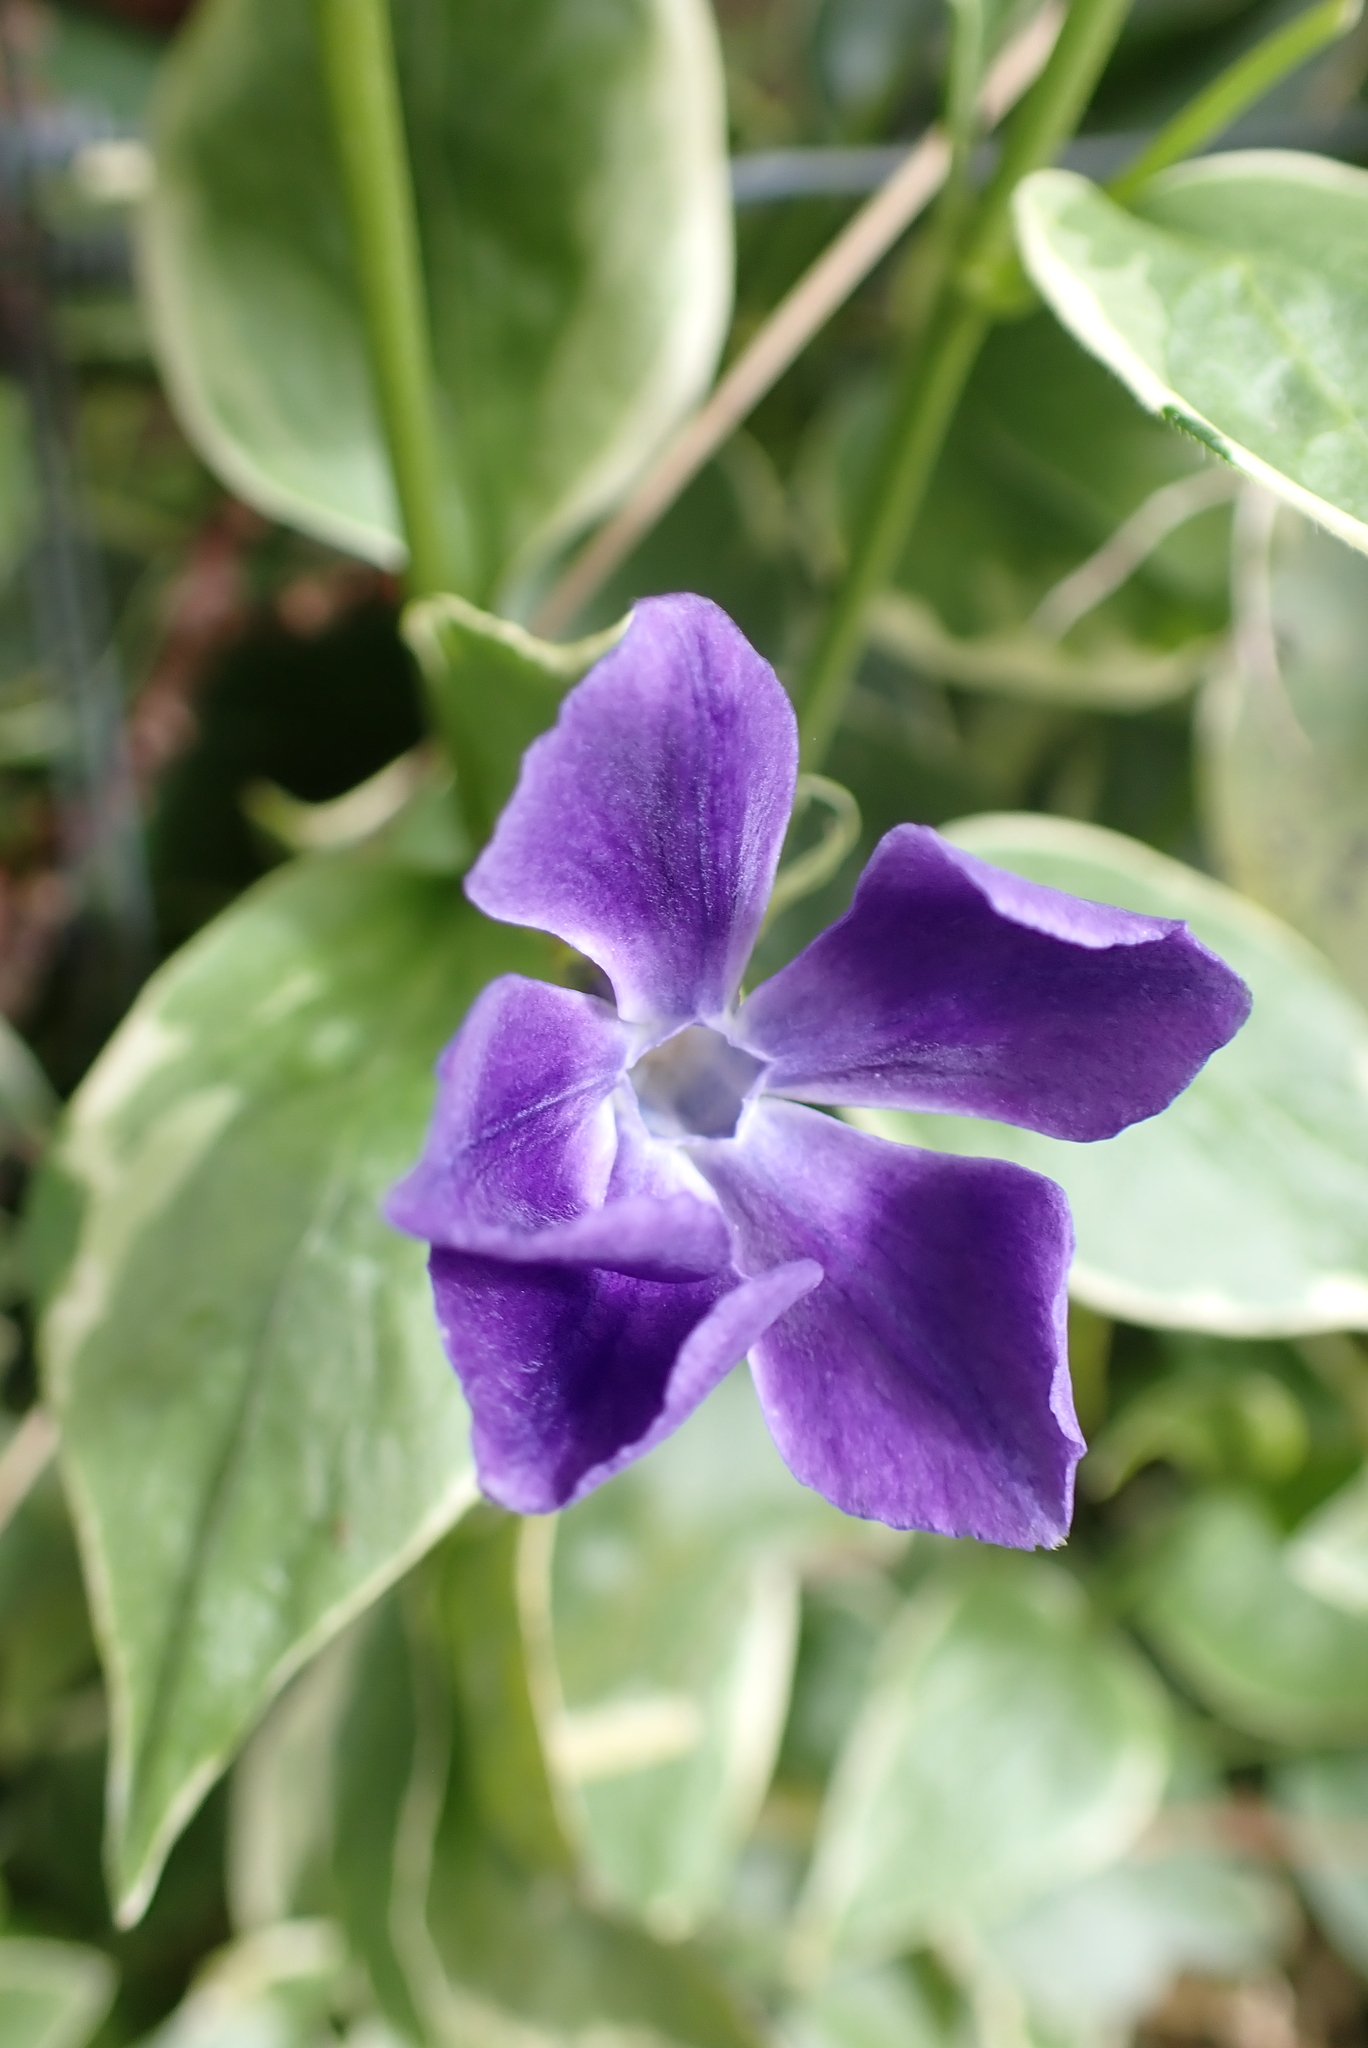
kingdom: Plantae
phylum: Tracheophyta
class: Magnoliopsida
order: Gentianales
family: Apocynaceae
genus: Vinca
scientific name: Vinca major
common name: Greater periwinkle
